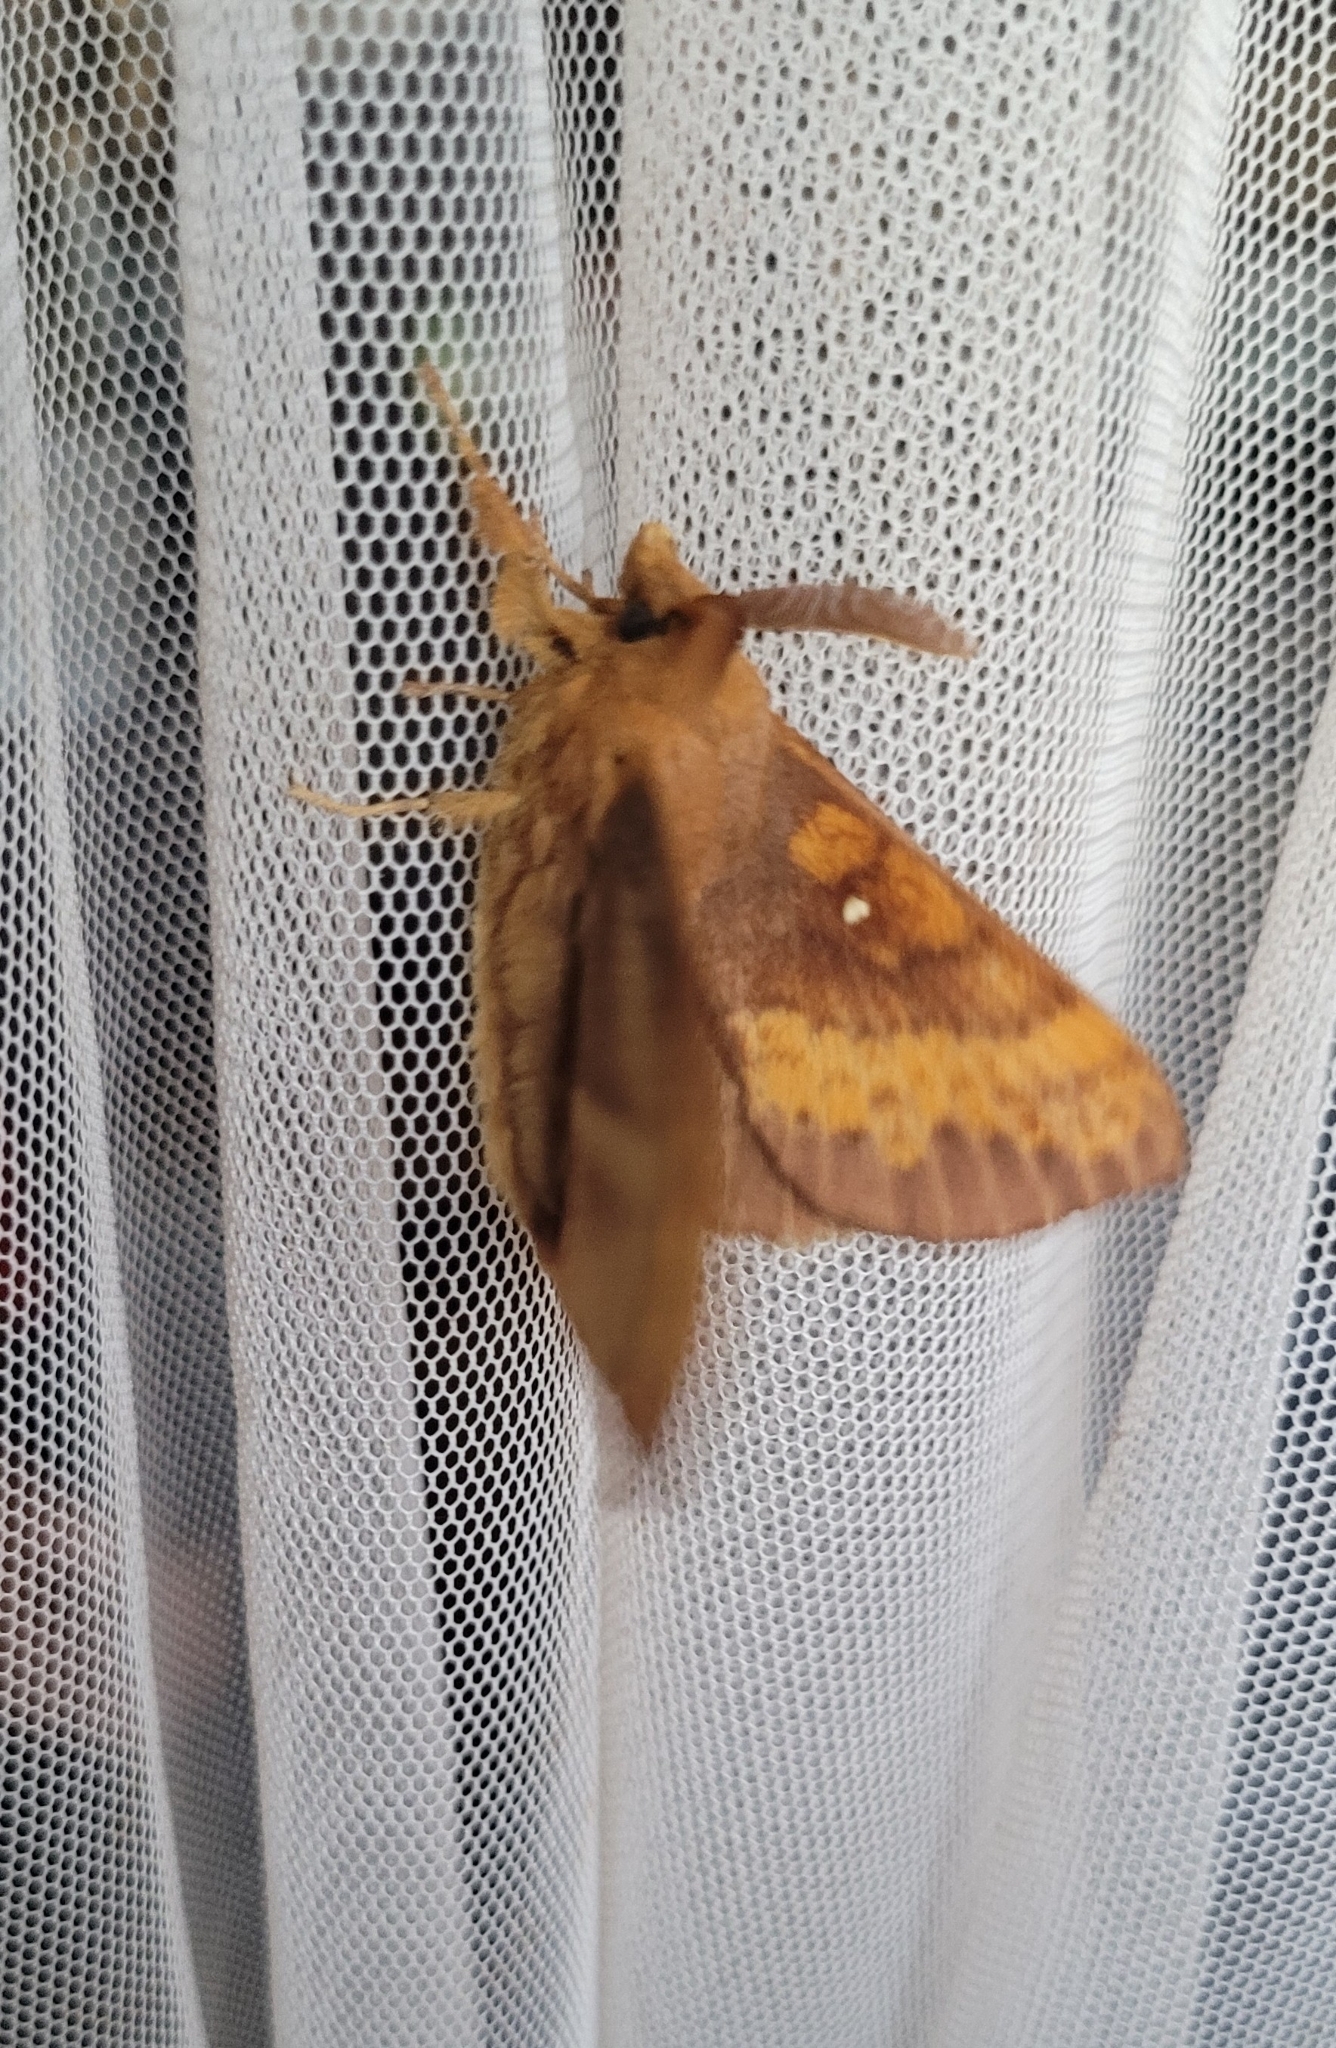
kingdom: Animalia
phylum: Arthropoda
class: Insecta
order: Lepidoptera
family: Lasiocampidae
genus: Kunugia
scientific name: Kunugia undans
